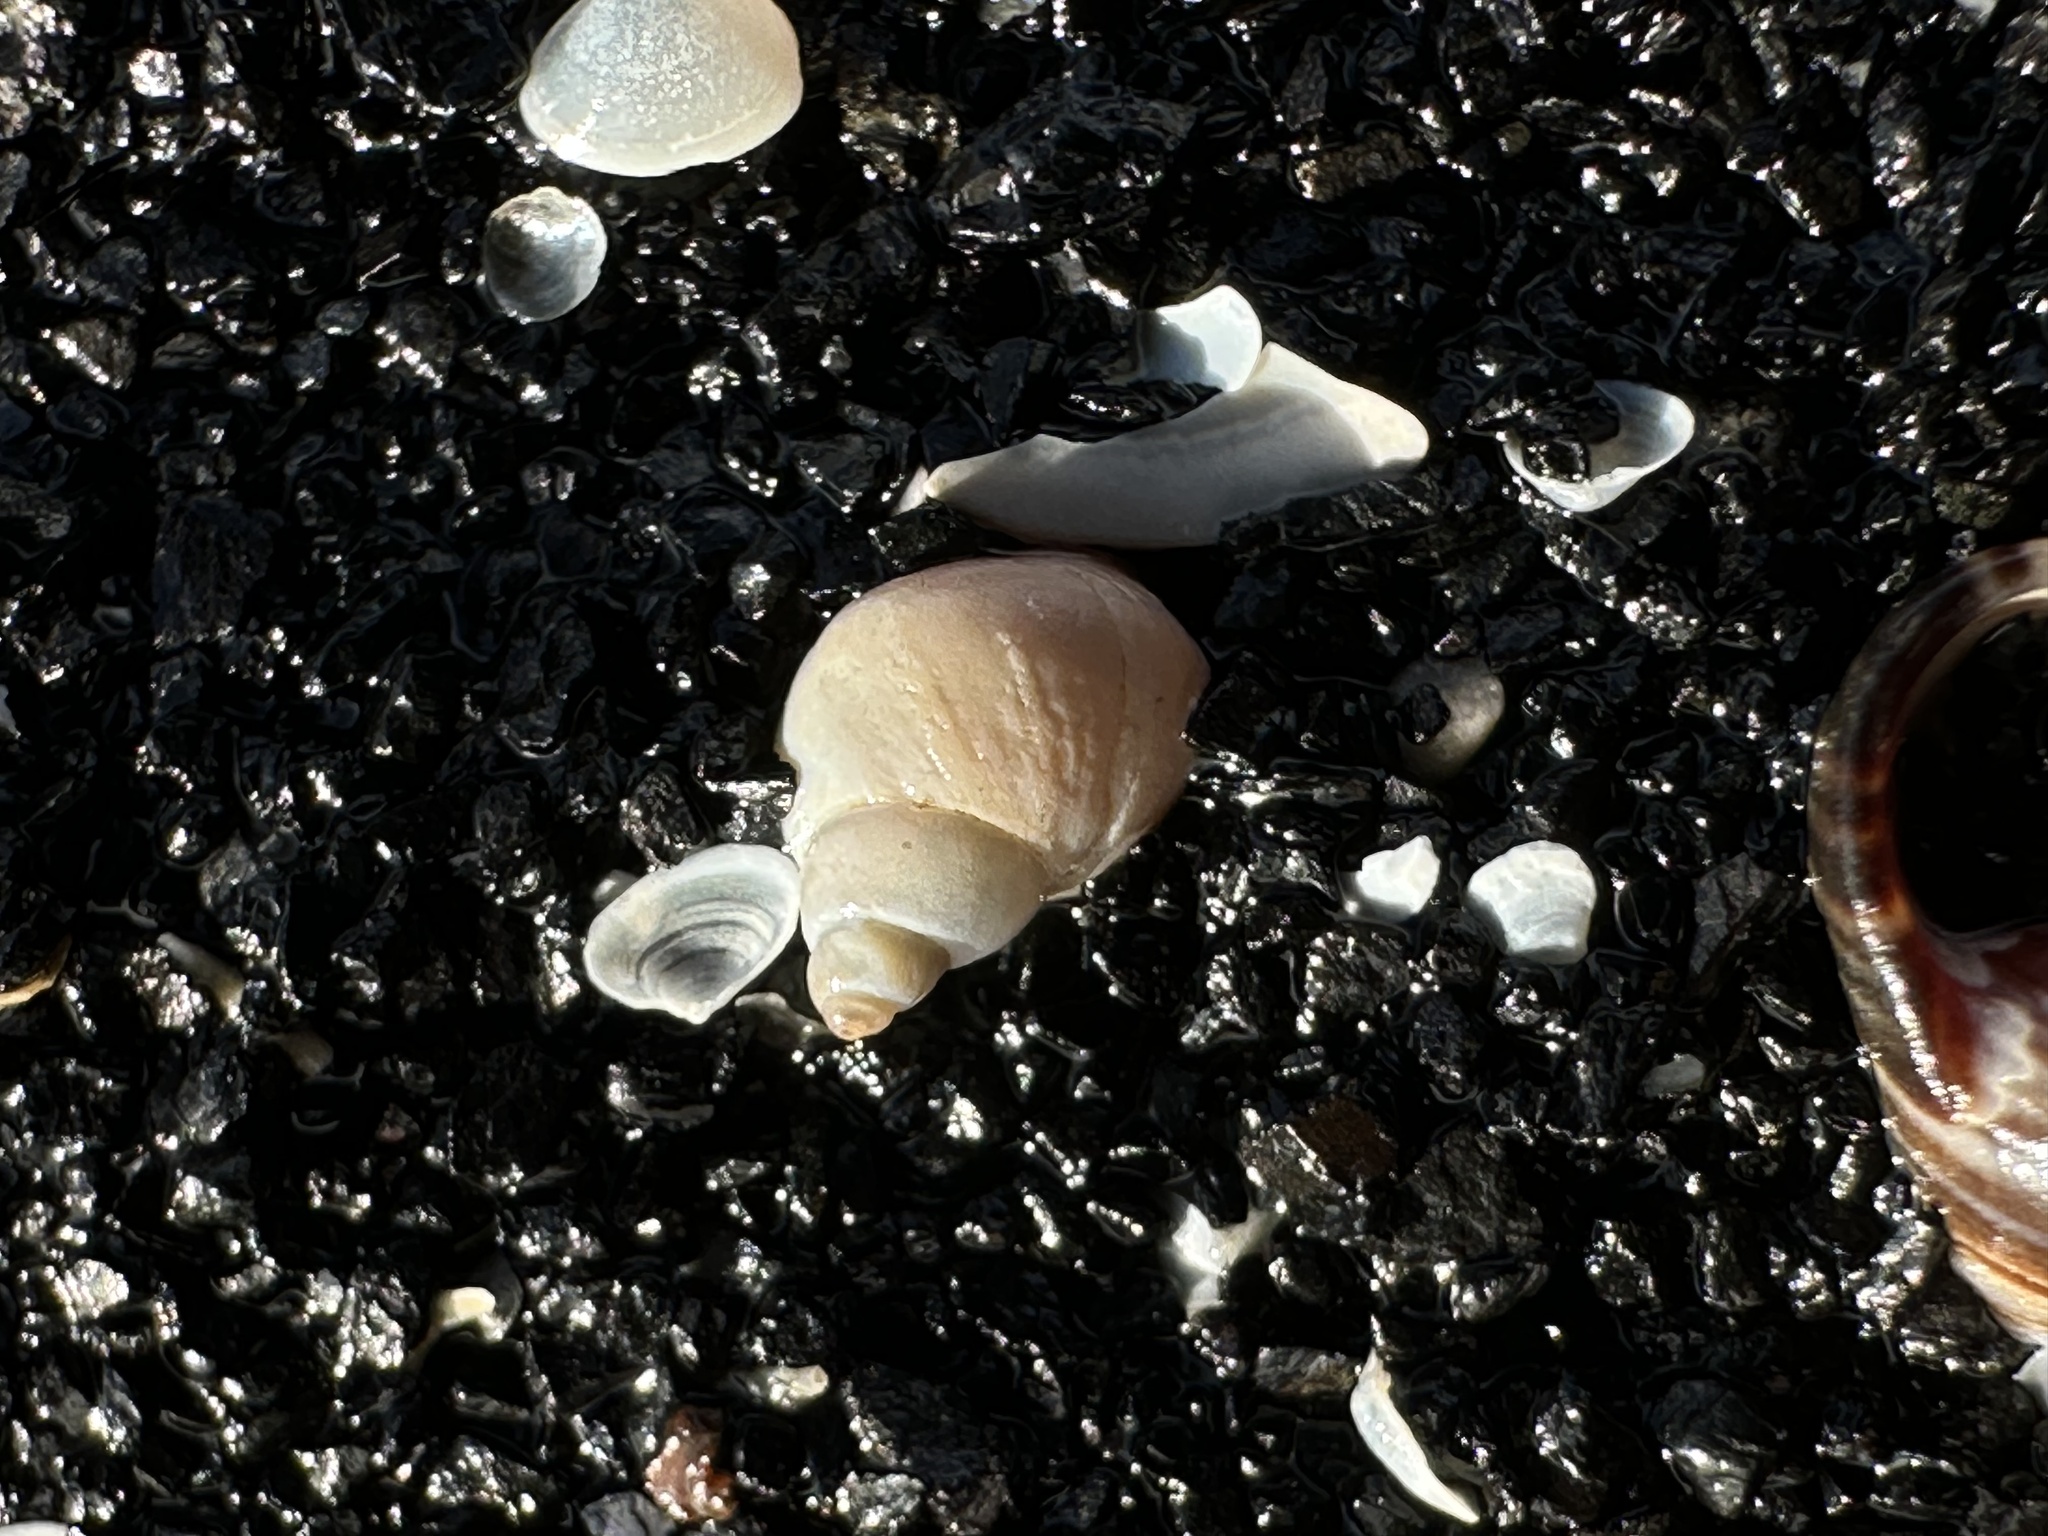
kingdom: Animalia
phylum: Mollusca
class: Gastropoda
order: Littorinimorpha
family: Littorinidae
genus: Lacuna
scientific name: Lacuna vincta
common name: Banded chink shell
